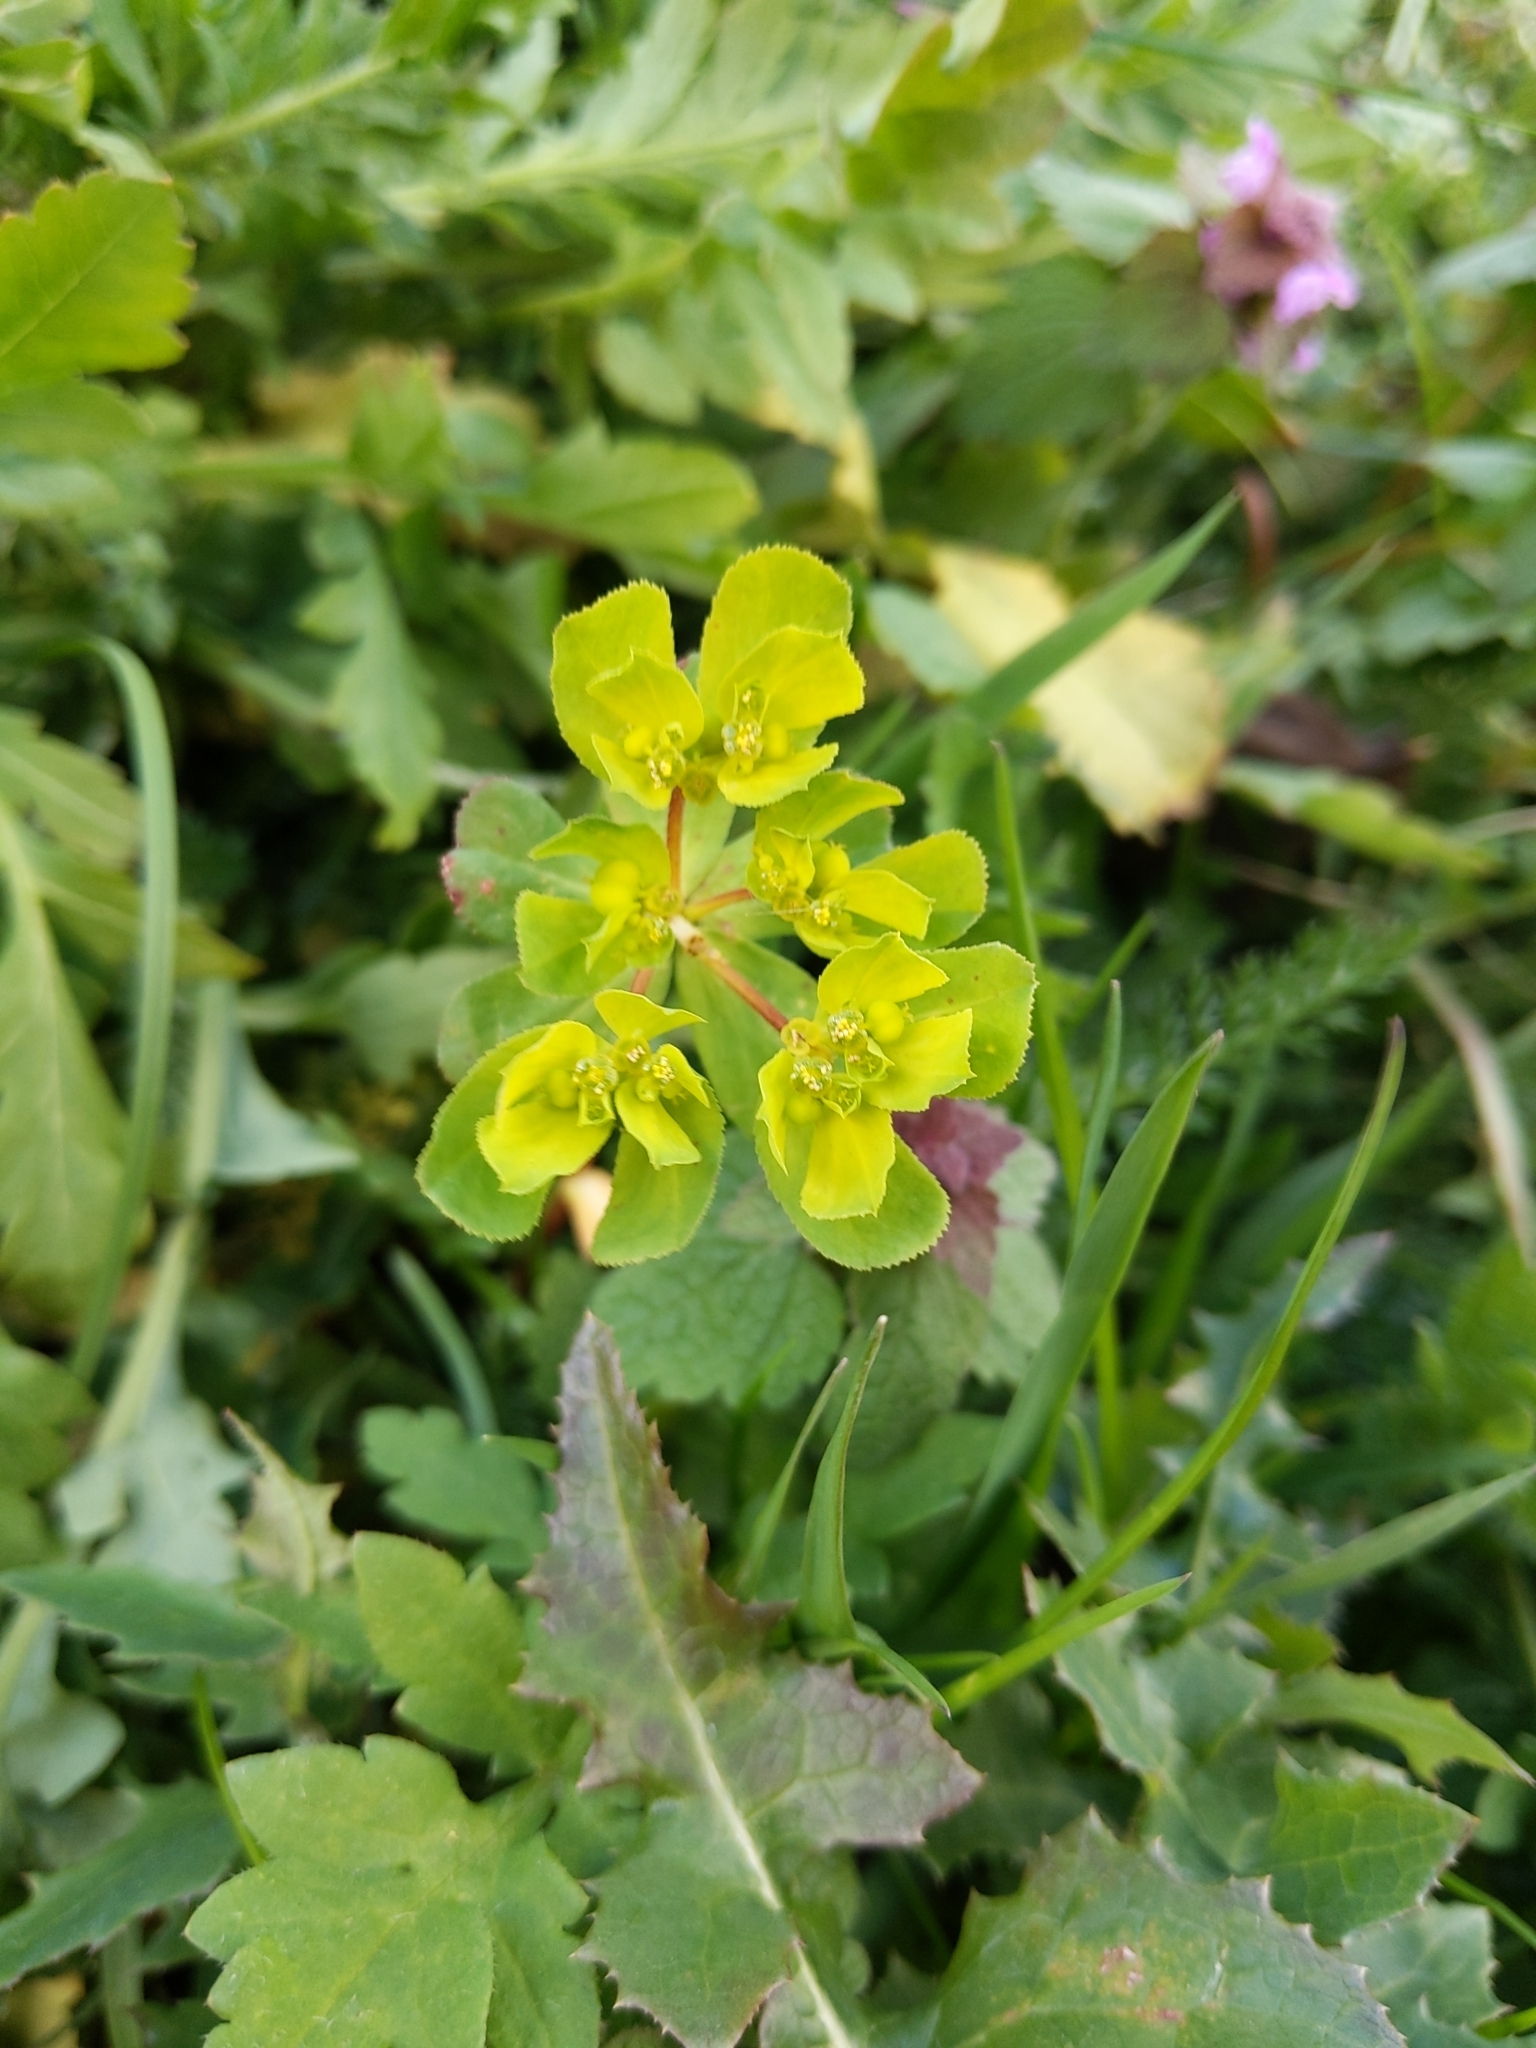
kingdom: Plantae
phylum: Tracheophyta
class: Magnoliopsida
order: Malpighiales
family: Euphorbiaceae
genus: Euphorbia
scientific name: Euphorbia helioscopia
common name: Sun spurge
